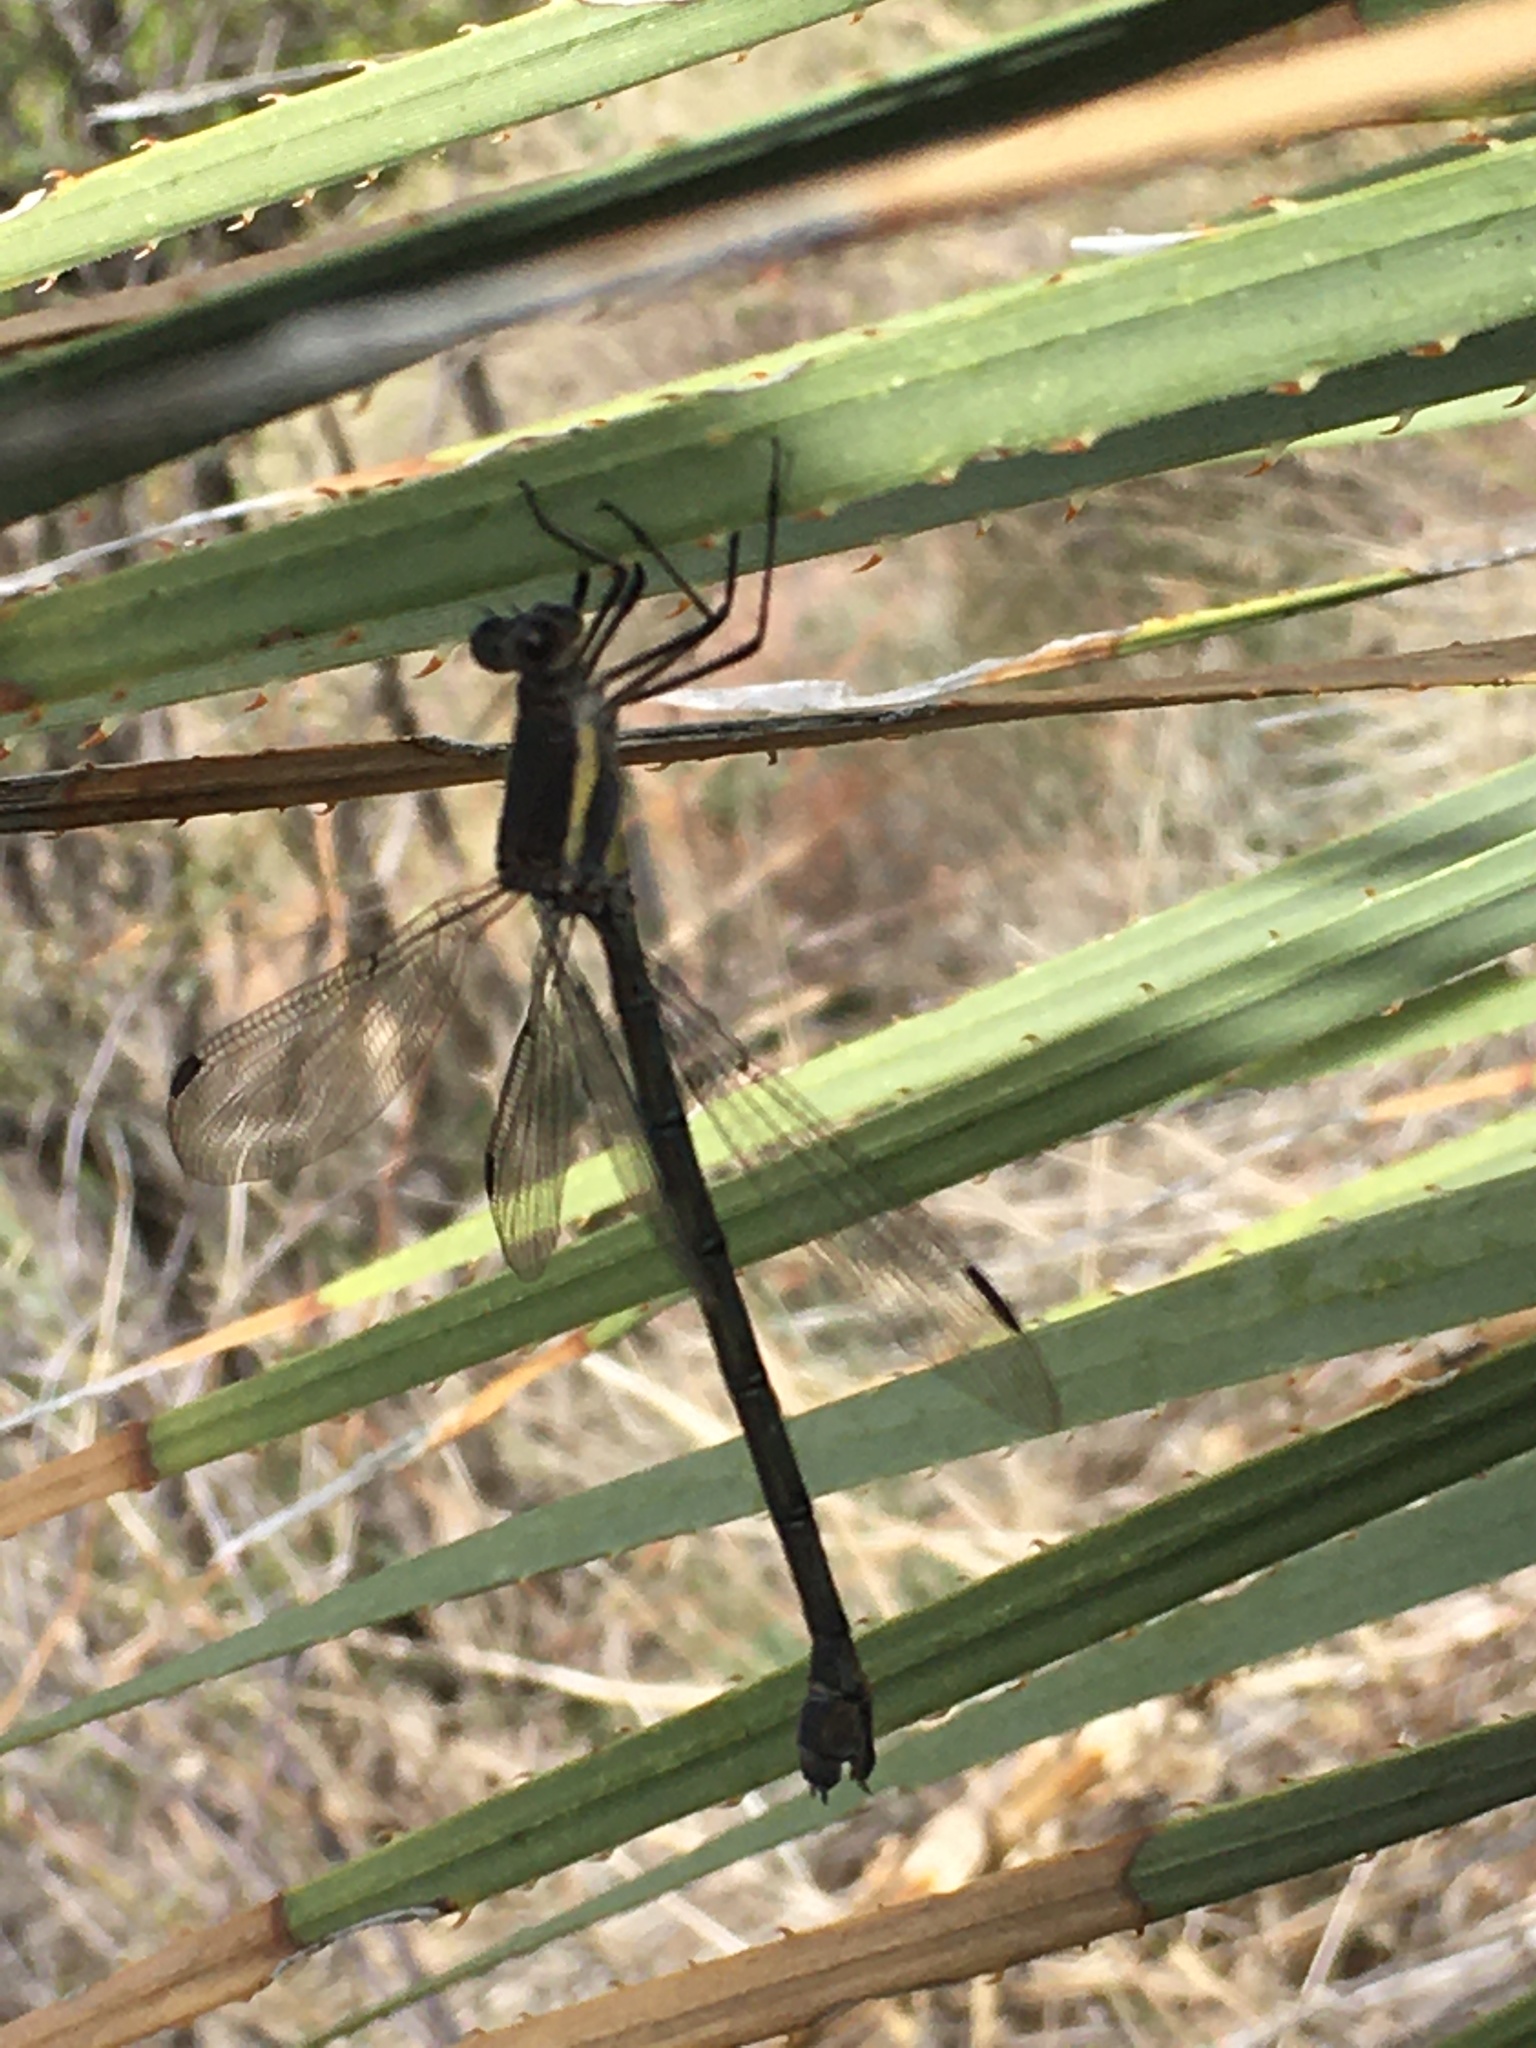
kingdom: Animalia
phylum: Arthropoda
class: Insecta
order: Odonata
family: Lestidae
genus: Archilestes
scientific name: Archilestes grandis
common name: Great spreadwing
